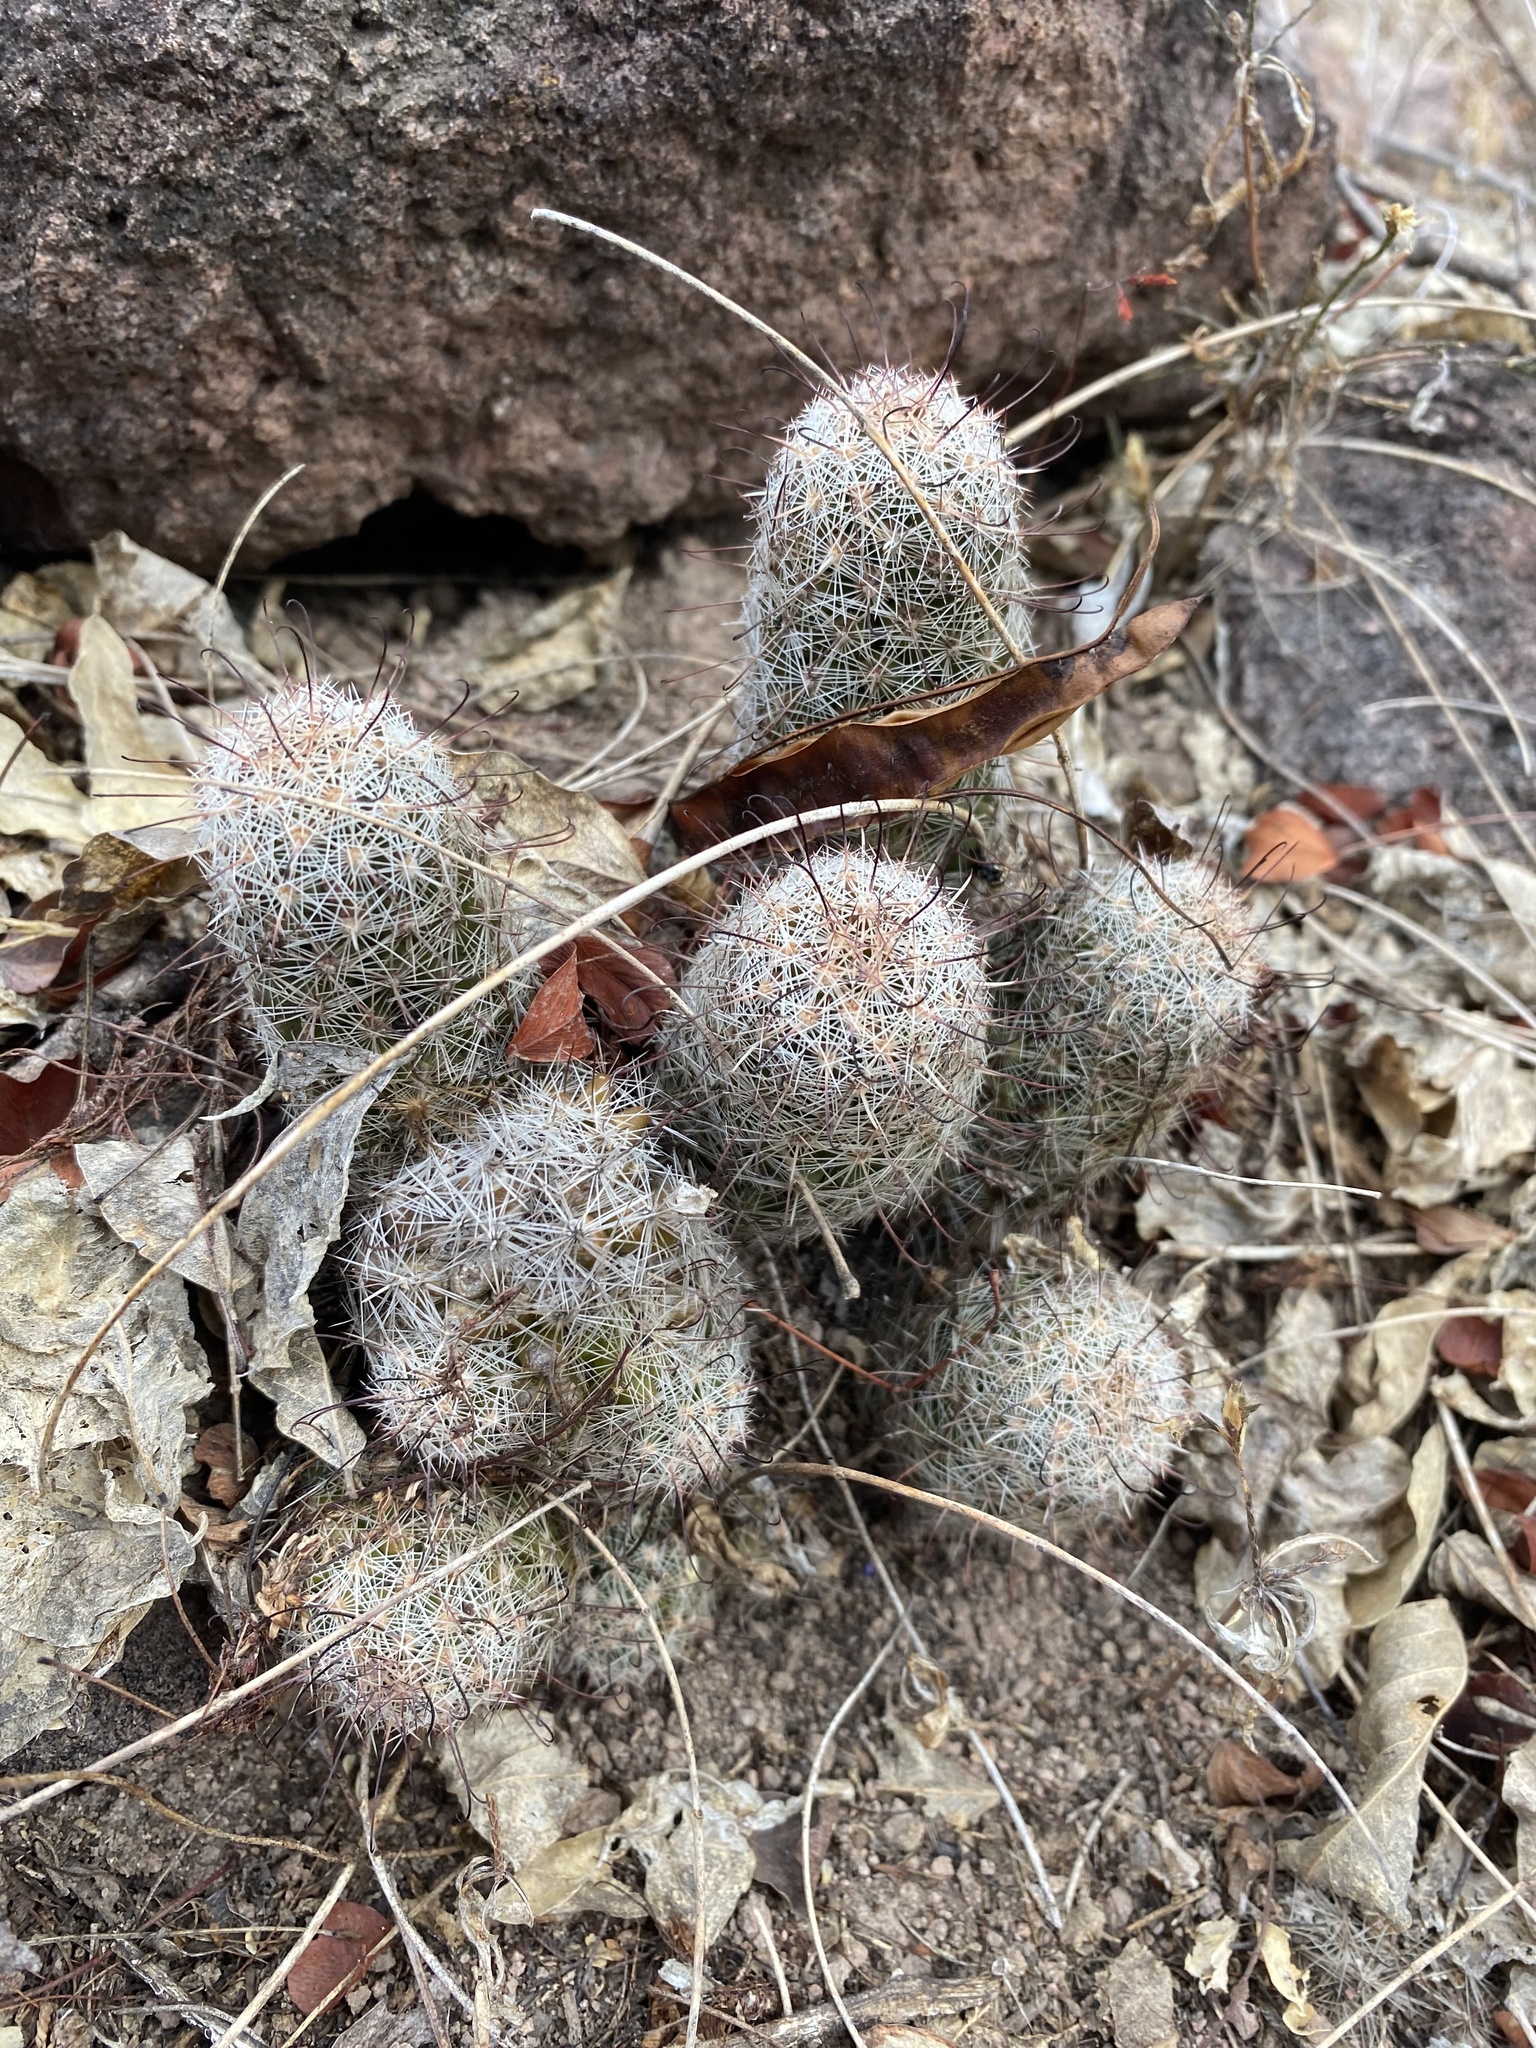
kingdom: Plantae
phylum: Tracheophyta
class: Magnoliopsida
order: Caryophyllales
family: Cactaceae
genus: Cochemiea
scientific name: Cochemiea grahamii
